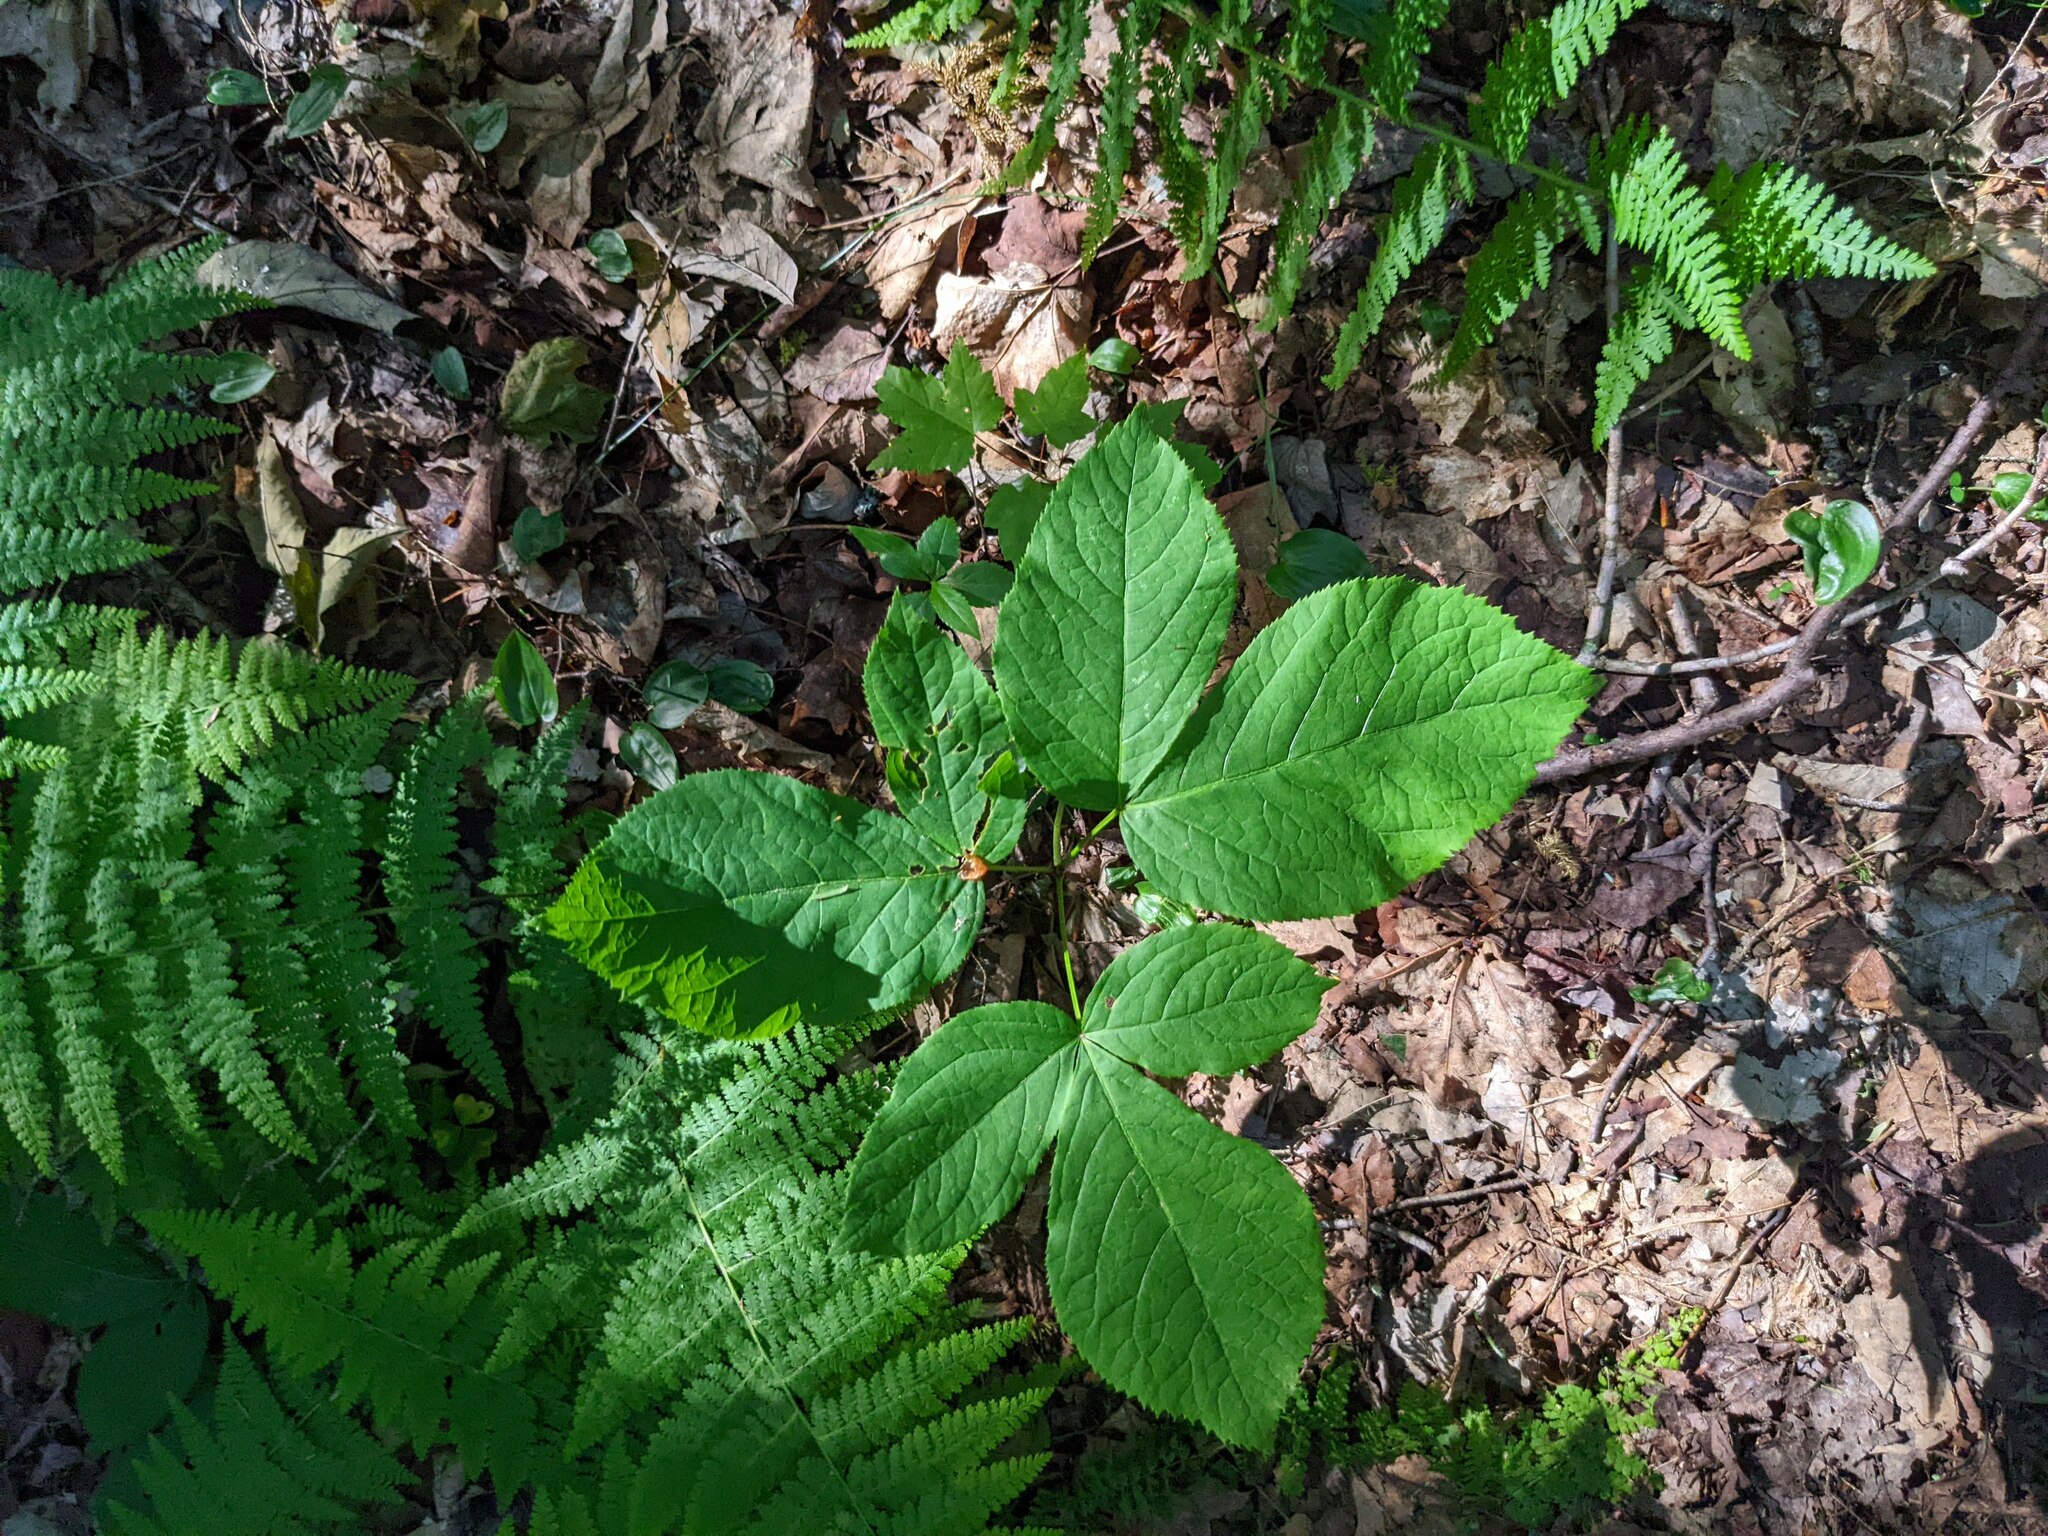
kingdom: Plantae
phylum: Tracheophyta
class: Magnoliopsida
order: Apiales
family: Araliaceae
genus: Aralia
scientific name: Aralia nudicaulis
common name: Wild sarsaparilla
